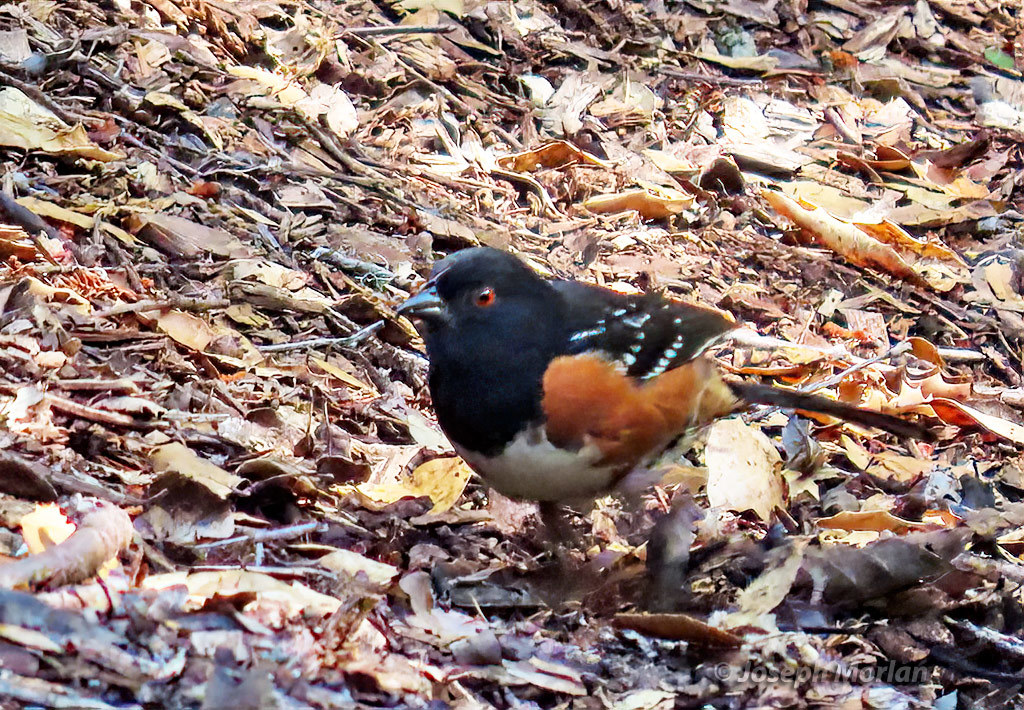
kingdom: Animalia
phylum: Chordata
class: Aves
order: Passeriformes
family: Passerellidae
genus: Pipilo
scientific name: Pipilo maculatus
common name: Spotted towhee
